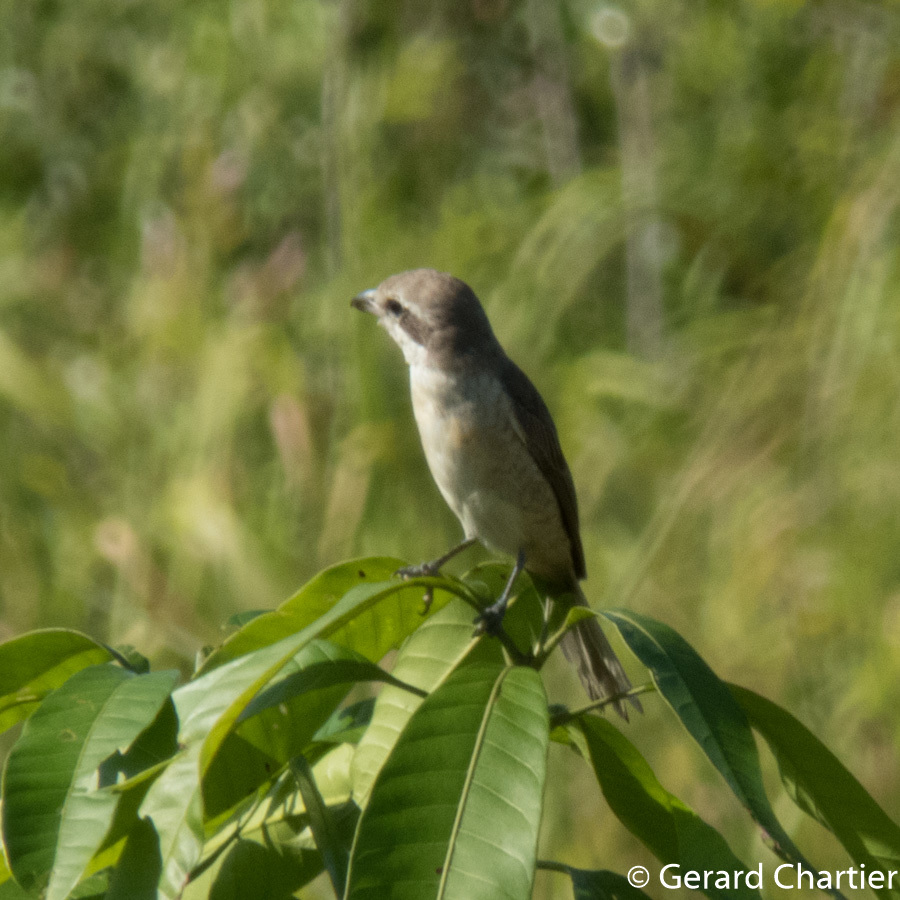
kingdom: Animalia
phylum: Chordata
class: Aves
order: Passeriformes
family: Laniidae
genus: Lanius
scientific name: Lanius cristatus
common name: Brown shrike
